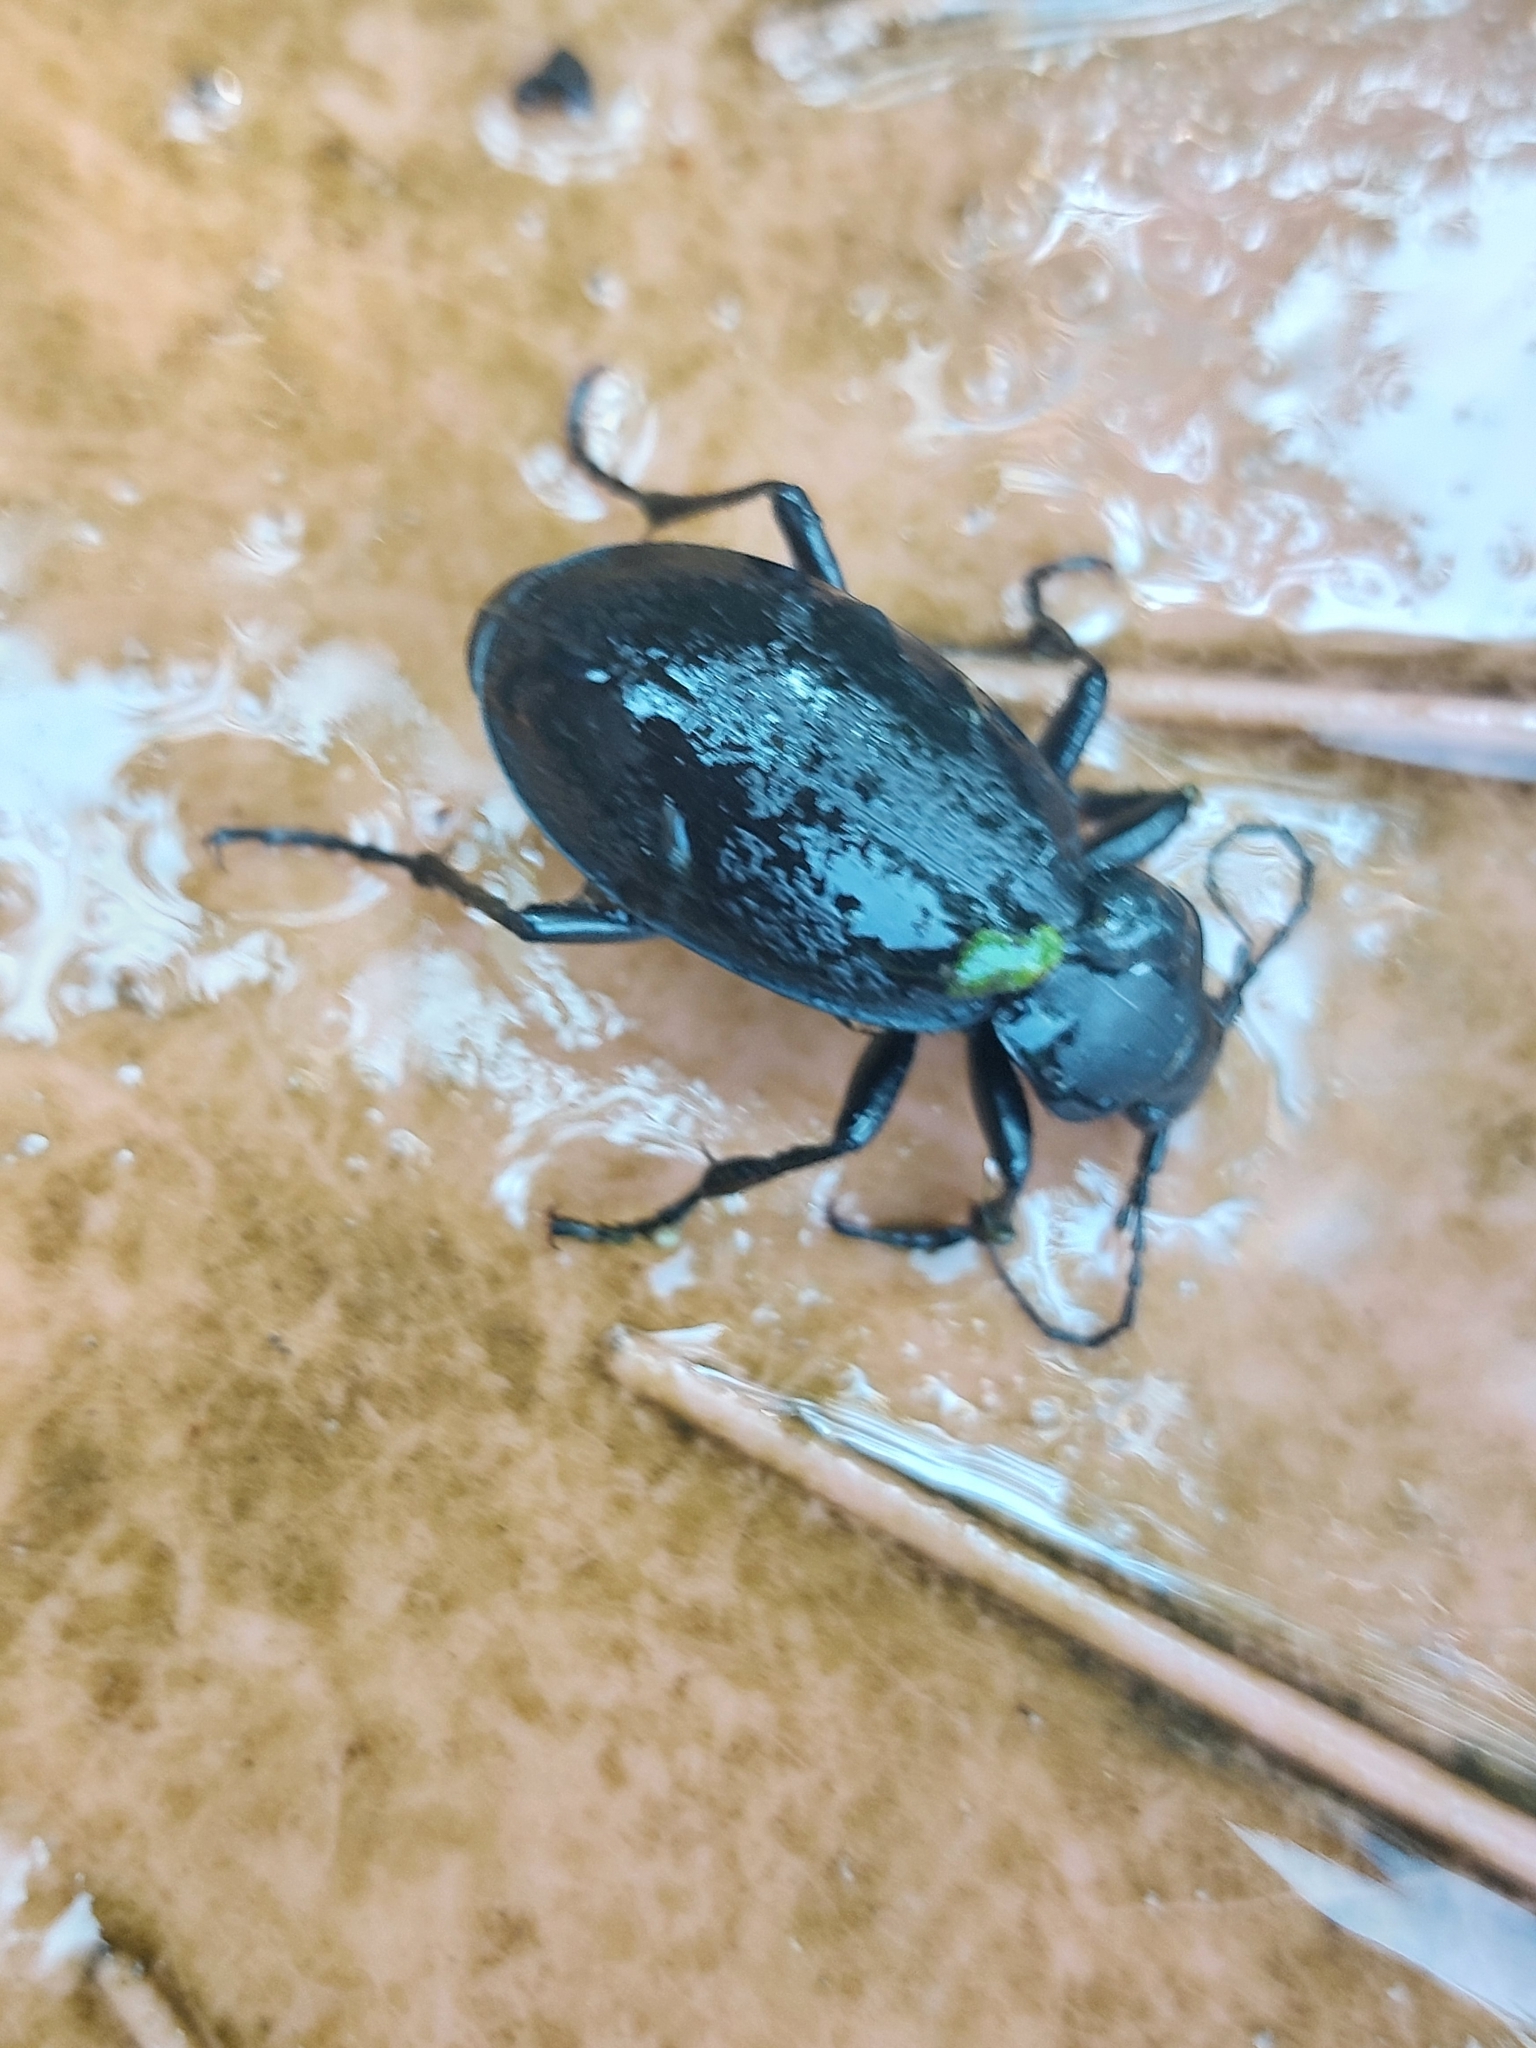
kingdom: Animalia
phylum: Arthropoda
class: Insecta
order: Coleoptera
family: Carabidae
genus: Carabus
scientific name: Carabus coriaceus
